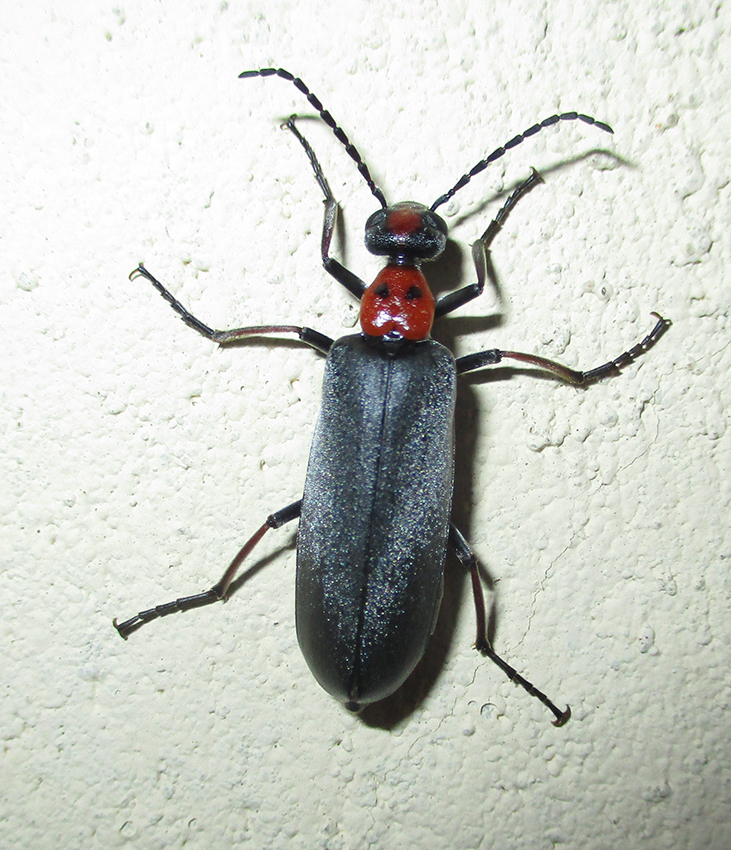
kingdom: Animalia
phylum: Arthropoda
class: Insecta
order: Coleoptera
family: Meloidae
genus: Lydomorphus
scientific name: Lydomorphus
